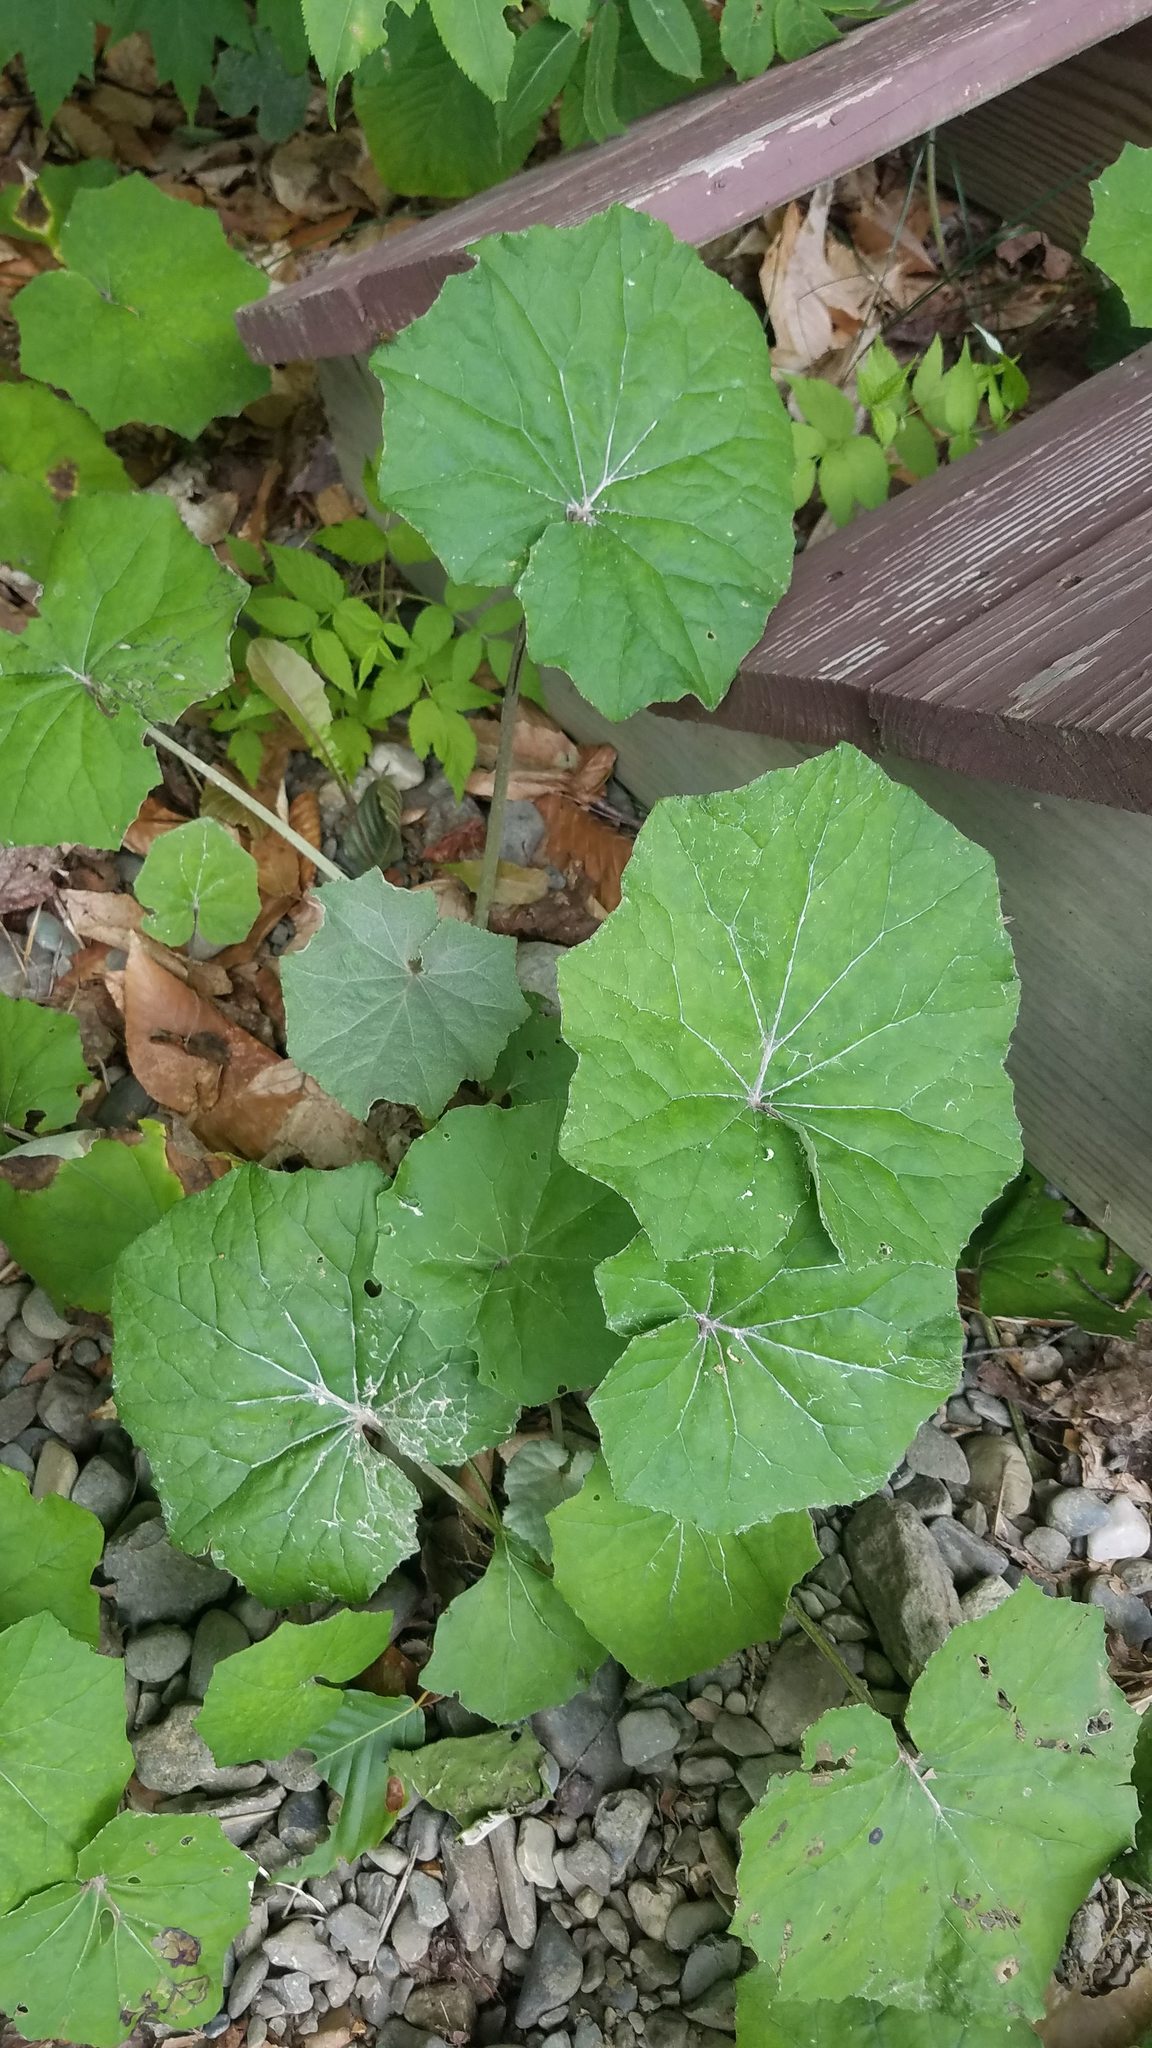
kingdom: Plantae
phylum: Tracheophyta
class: Magnoliopsida
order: Asterales
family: Asteraceae
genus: Tussilago
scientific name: Tussilago farfara
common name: Coltsfoot
